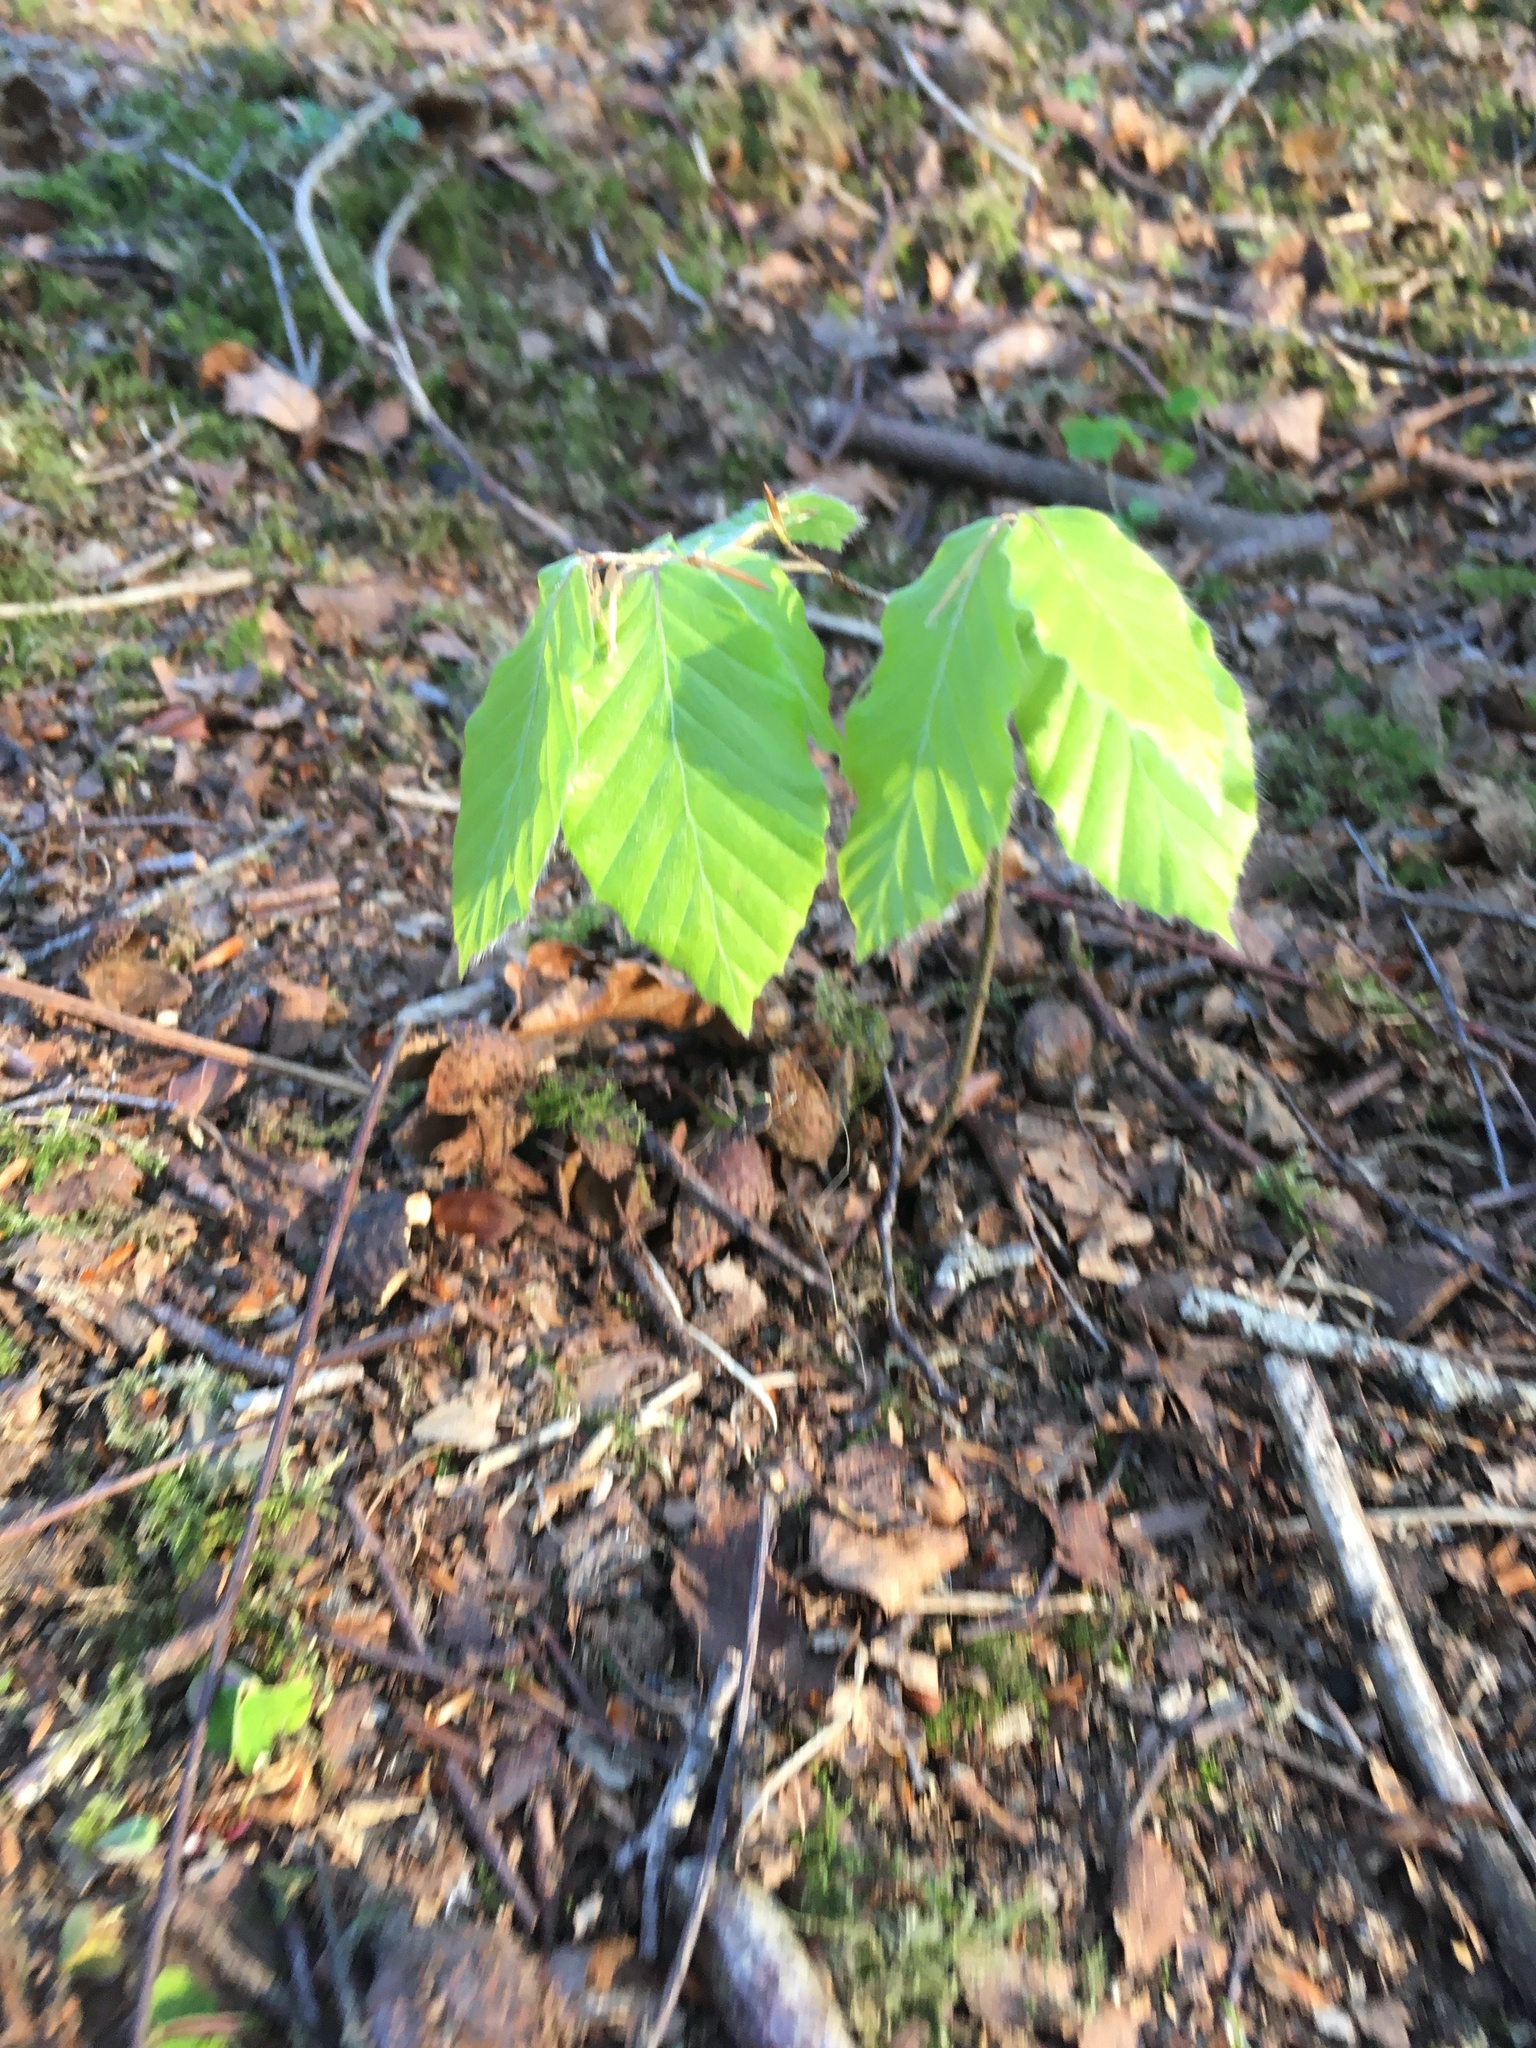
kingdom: Plantae
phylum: Tracheophyta
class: Magnoliopsida
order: Fagales
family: Fagaceae
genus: Fagus
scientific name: Fagus sylvatica
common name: Beech
